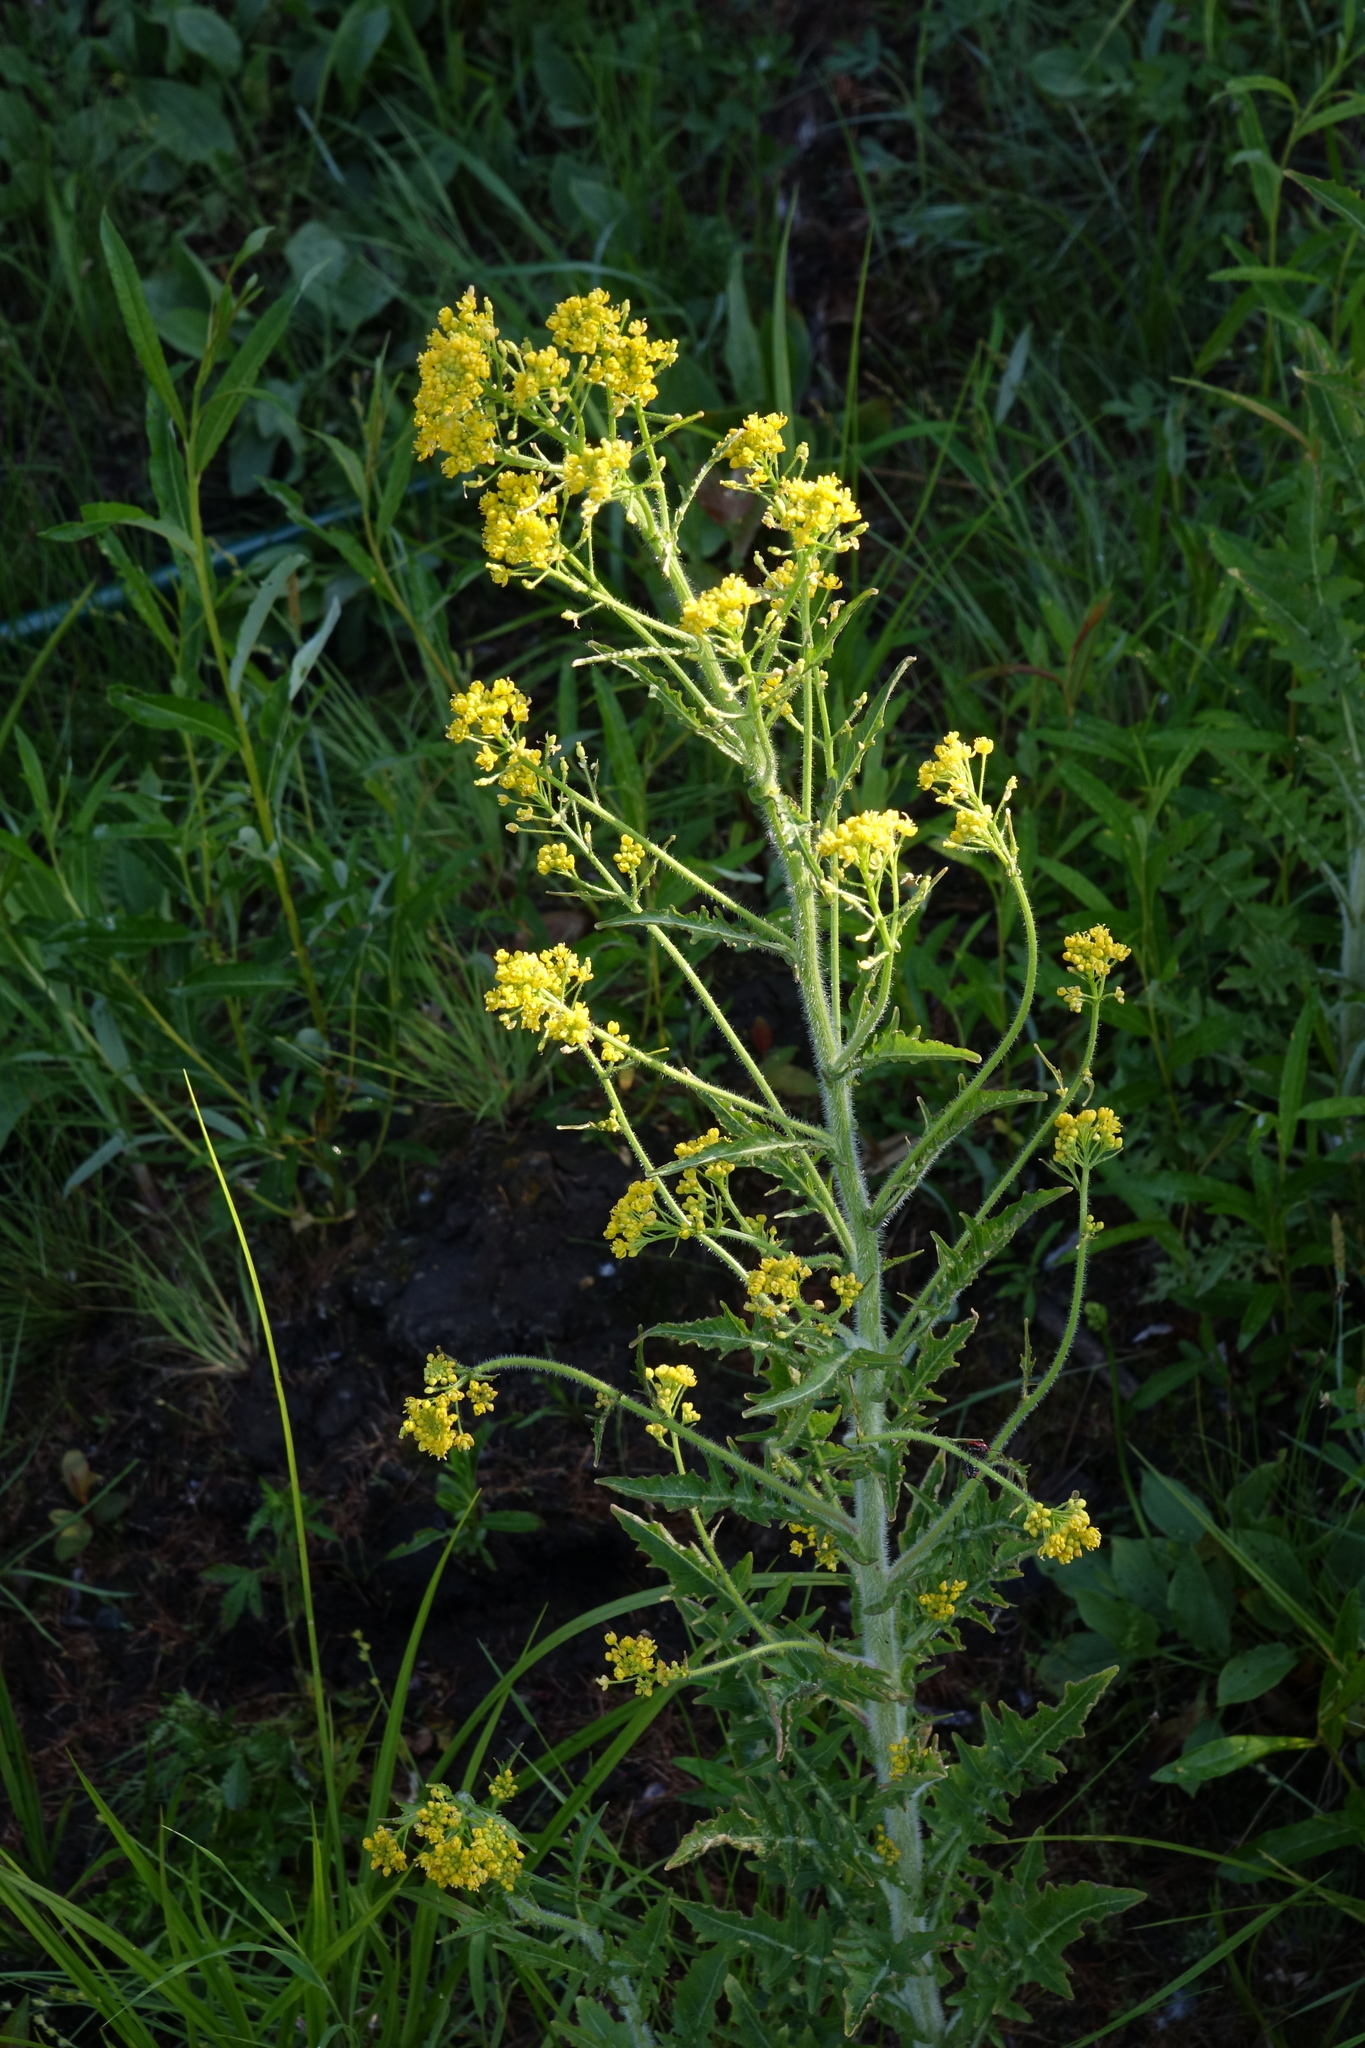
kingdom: Plantae
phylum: Tracheophyta
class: Magnoliopsida
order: Brassicales
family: Brassicaceae
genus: Rorippa
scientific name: Rorippa barbareifolia
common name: Hoary yellowcress
